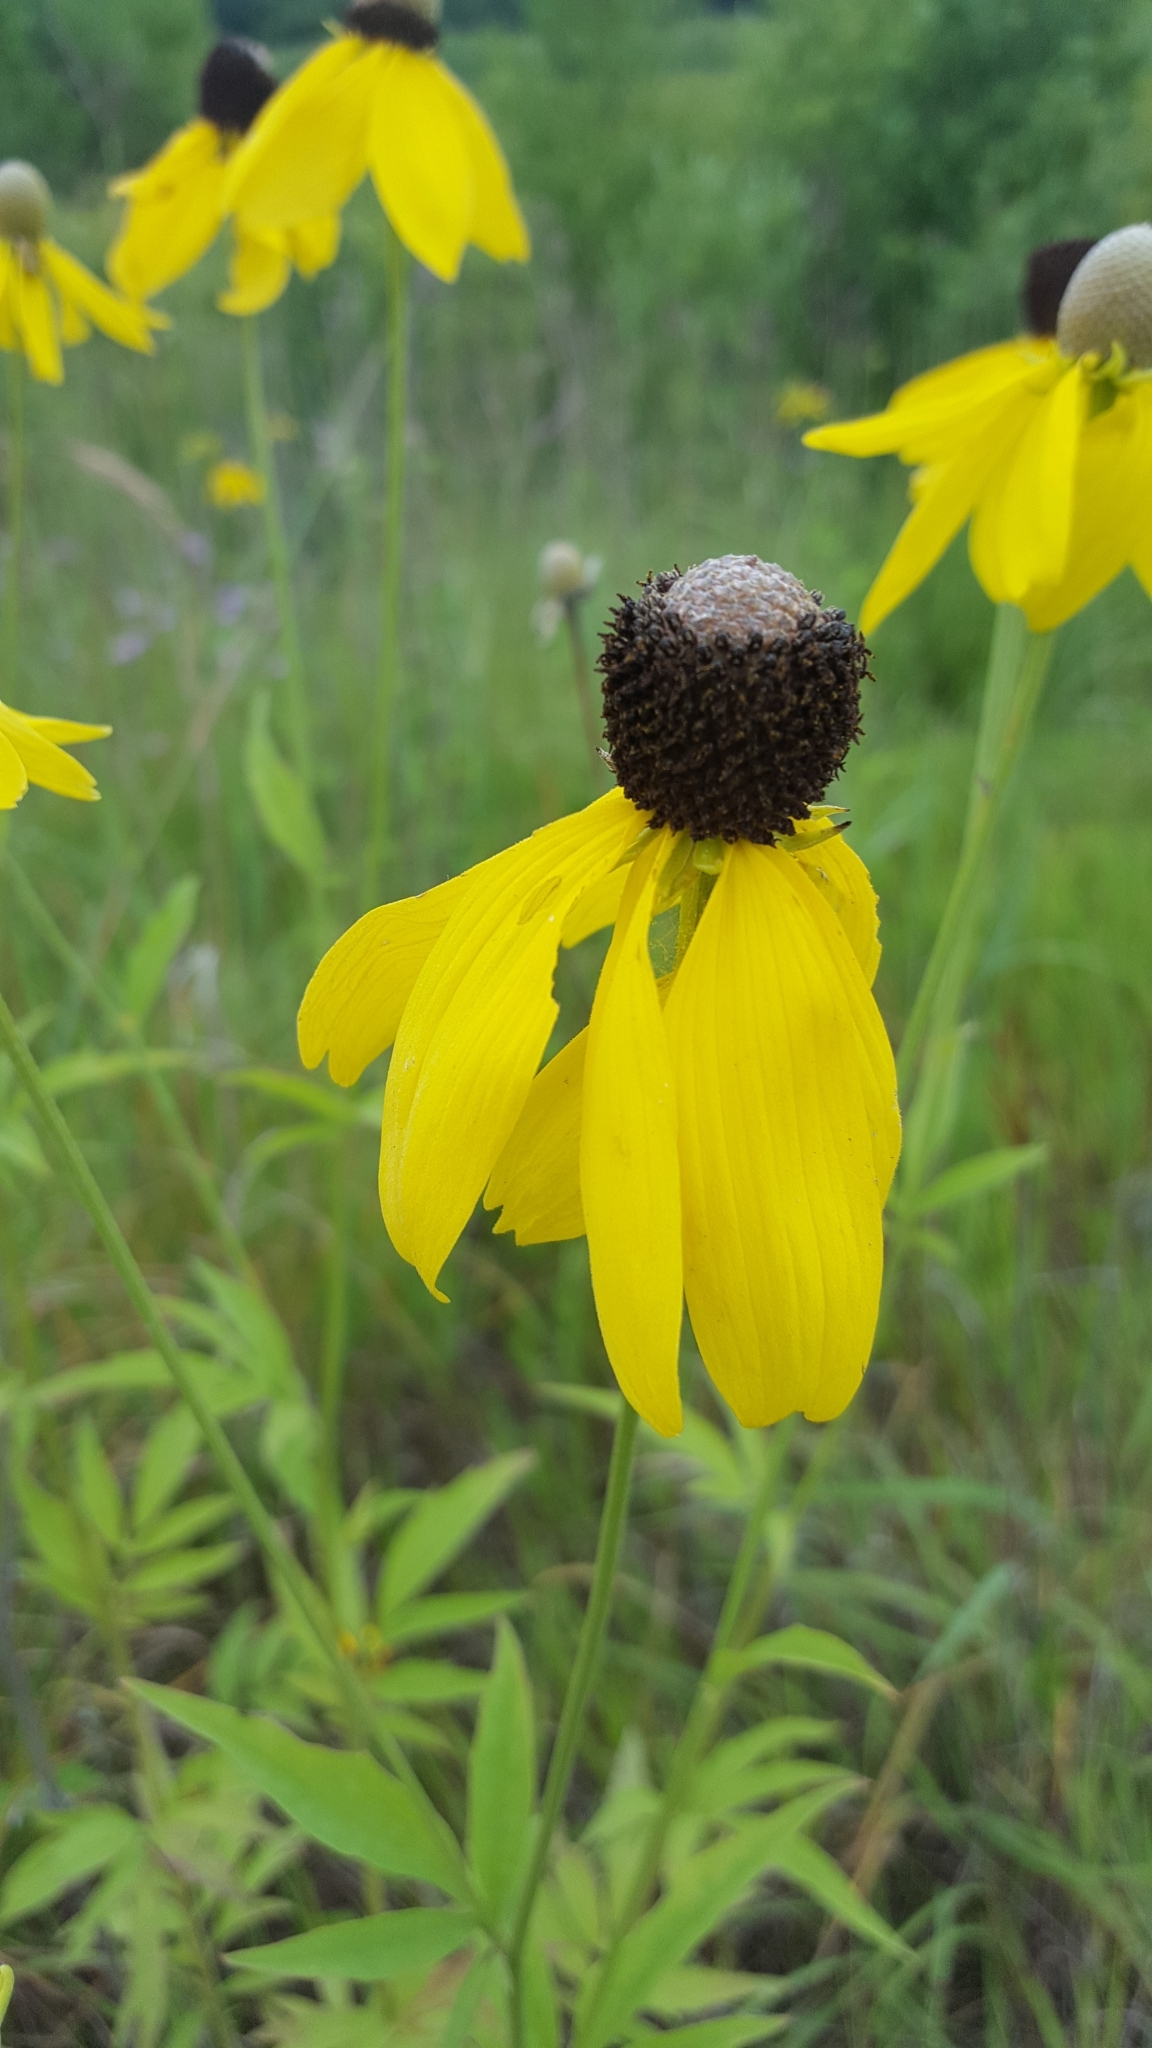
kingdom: Plantae
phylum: Tracheophyta
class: Magnoliopsida
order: Asterales
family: Asteraceae
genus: Ratibida
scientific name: Ratibida pinnata
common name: Drooping prairie-coneflower
